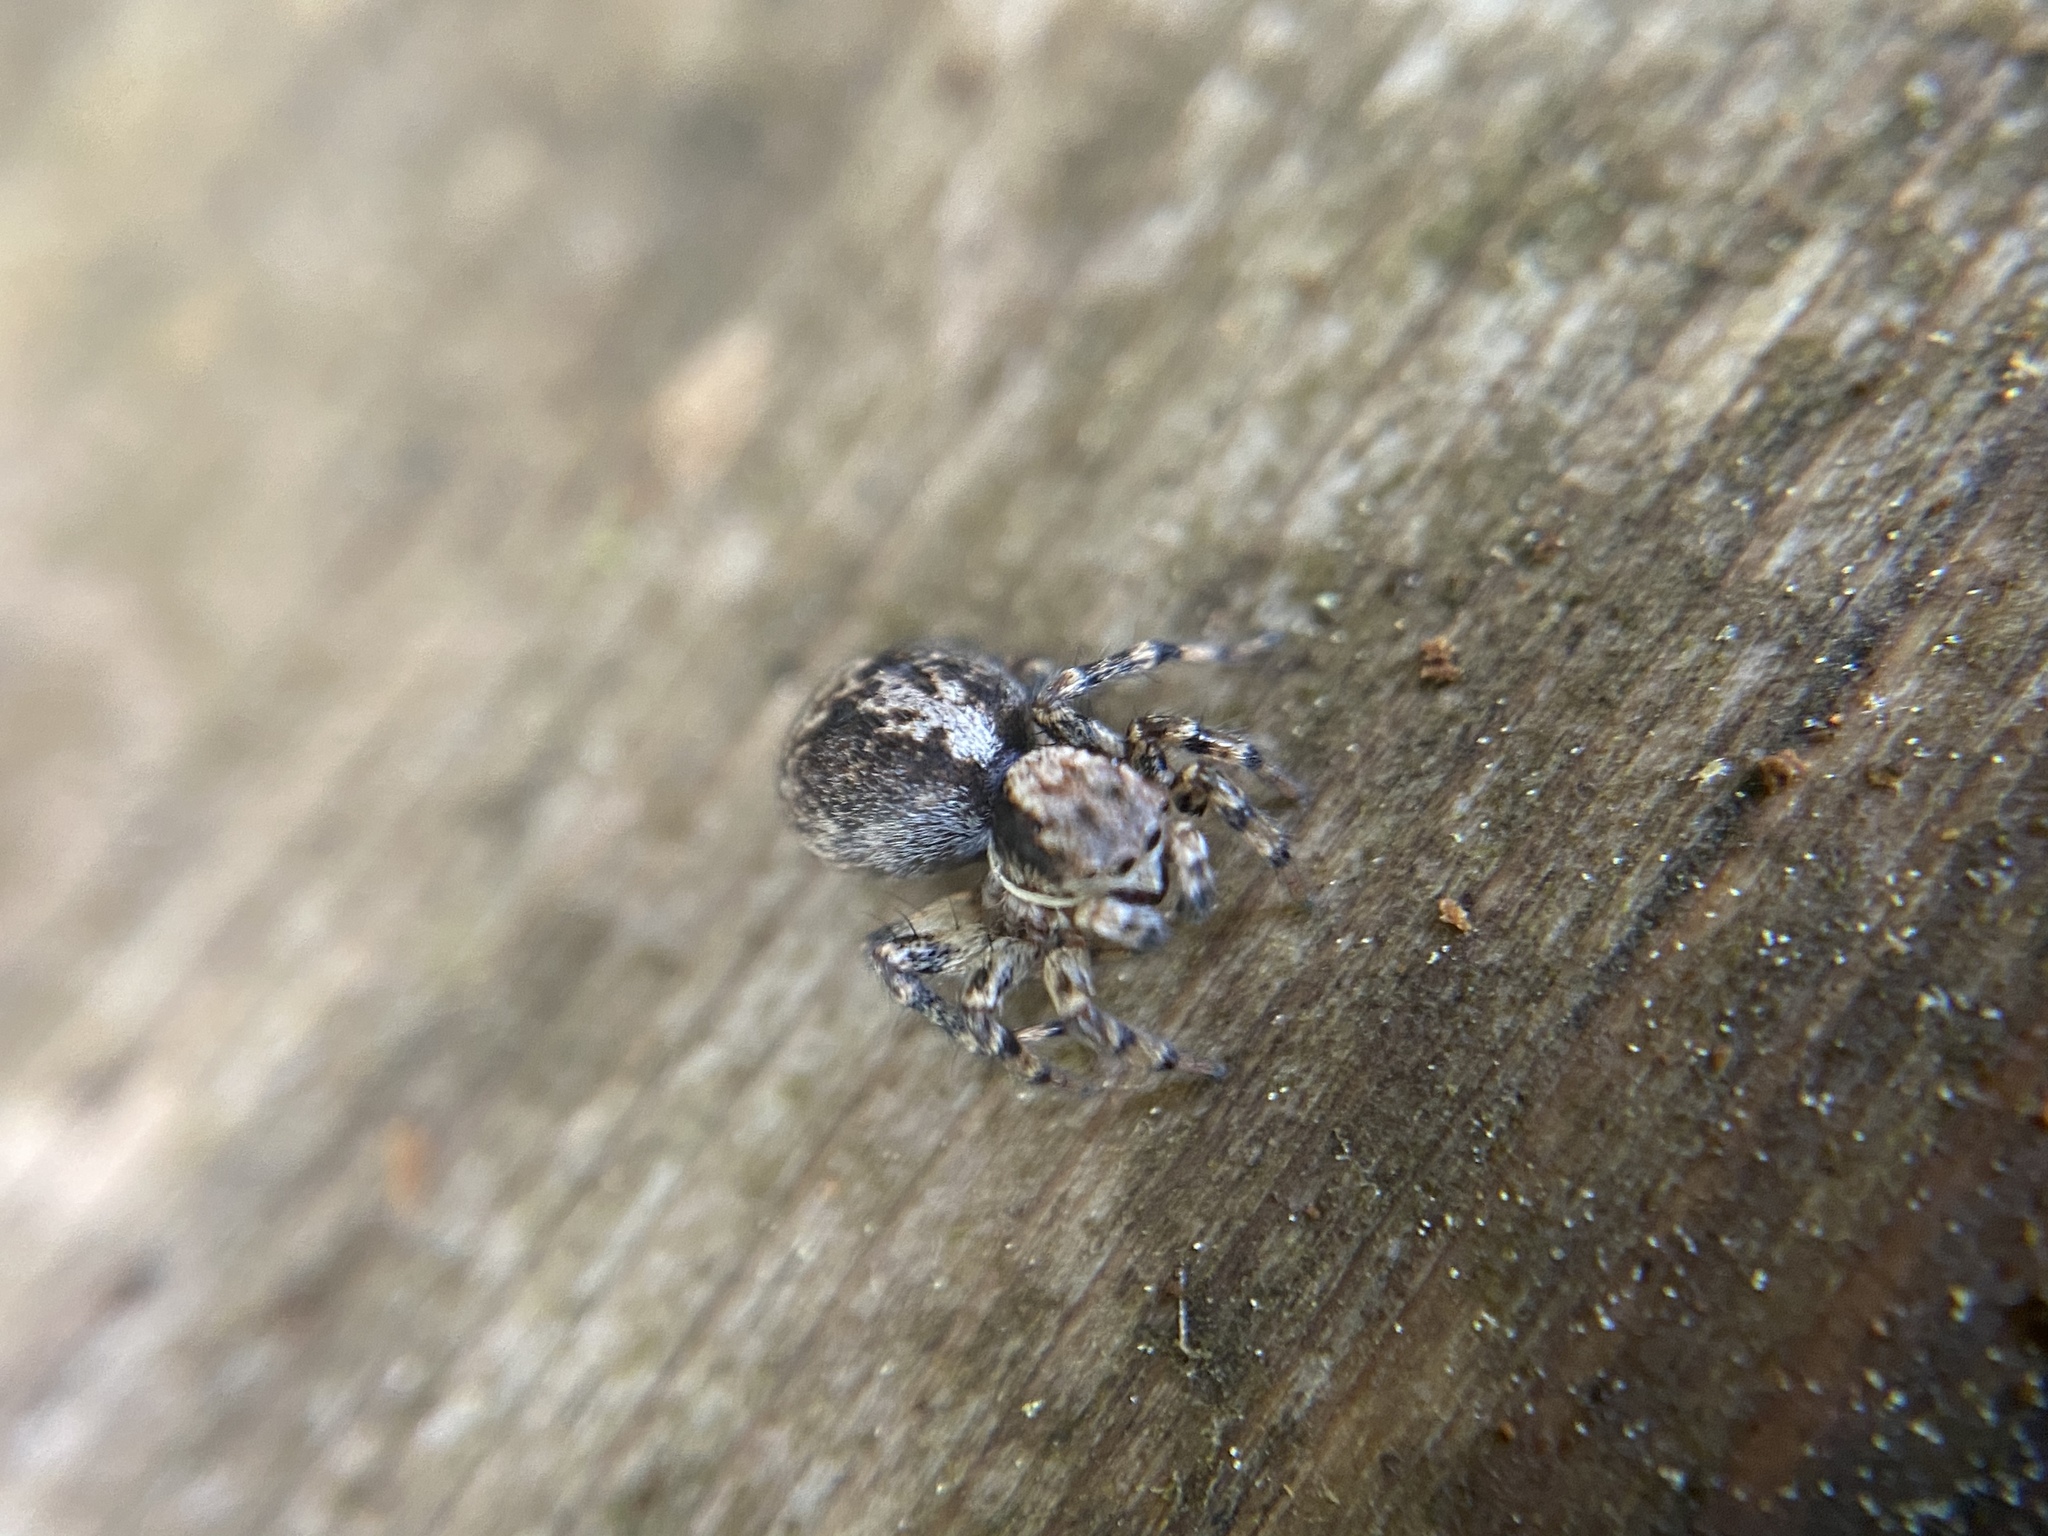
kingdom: Animalia
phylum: Arthropoda
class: Arachnida
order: Araneae
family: Salticidae
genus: Naphrys
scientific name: Naphrys pulex
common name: Flea jumping spider
